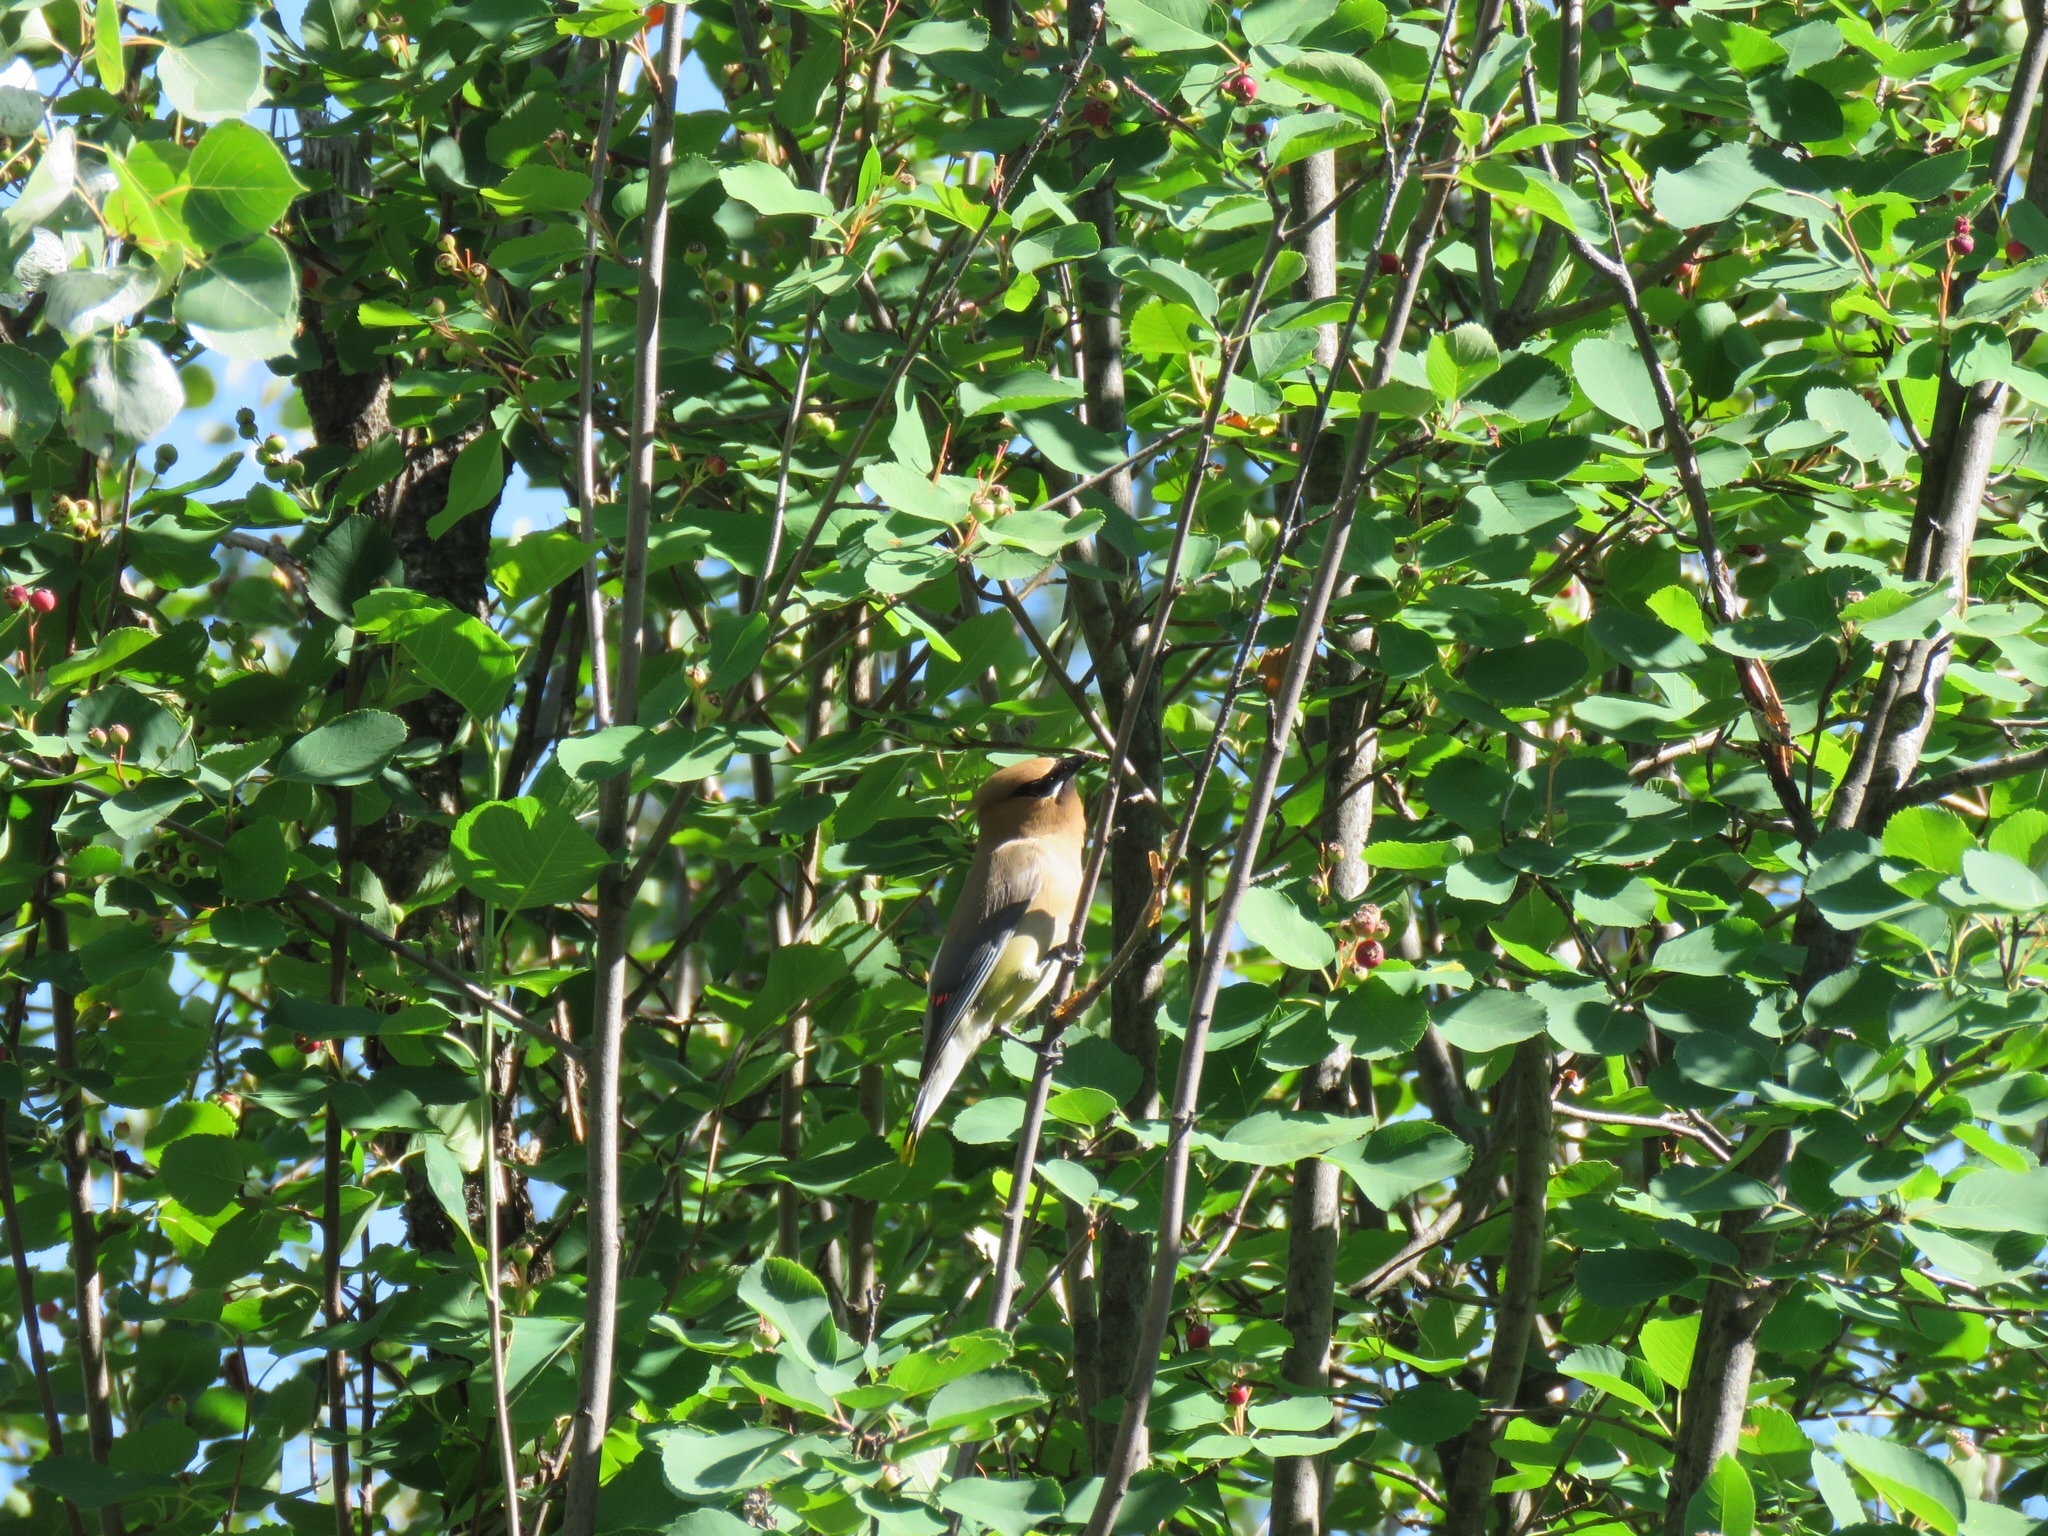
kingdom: Animalia
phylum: Chordata
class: Aves
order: Passeriformes
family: Bombycillidae
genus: Bombycilla
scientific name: Bombycilla cedrorum
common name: Cedar waxwing
